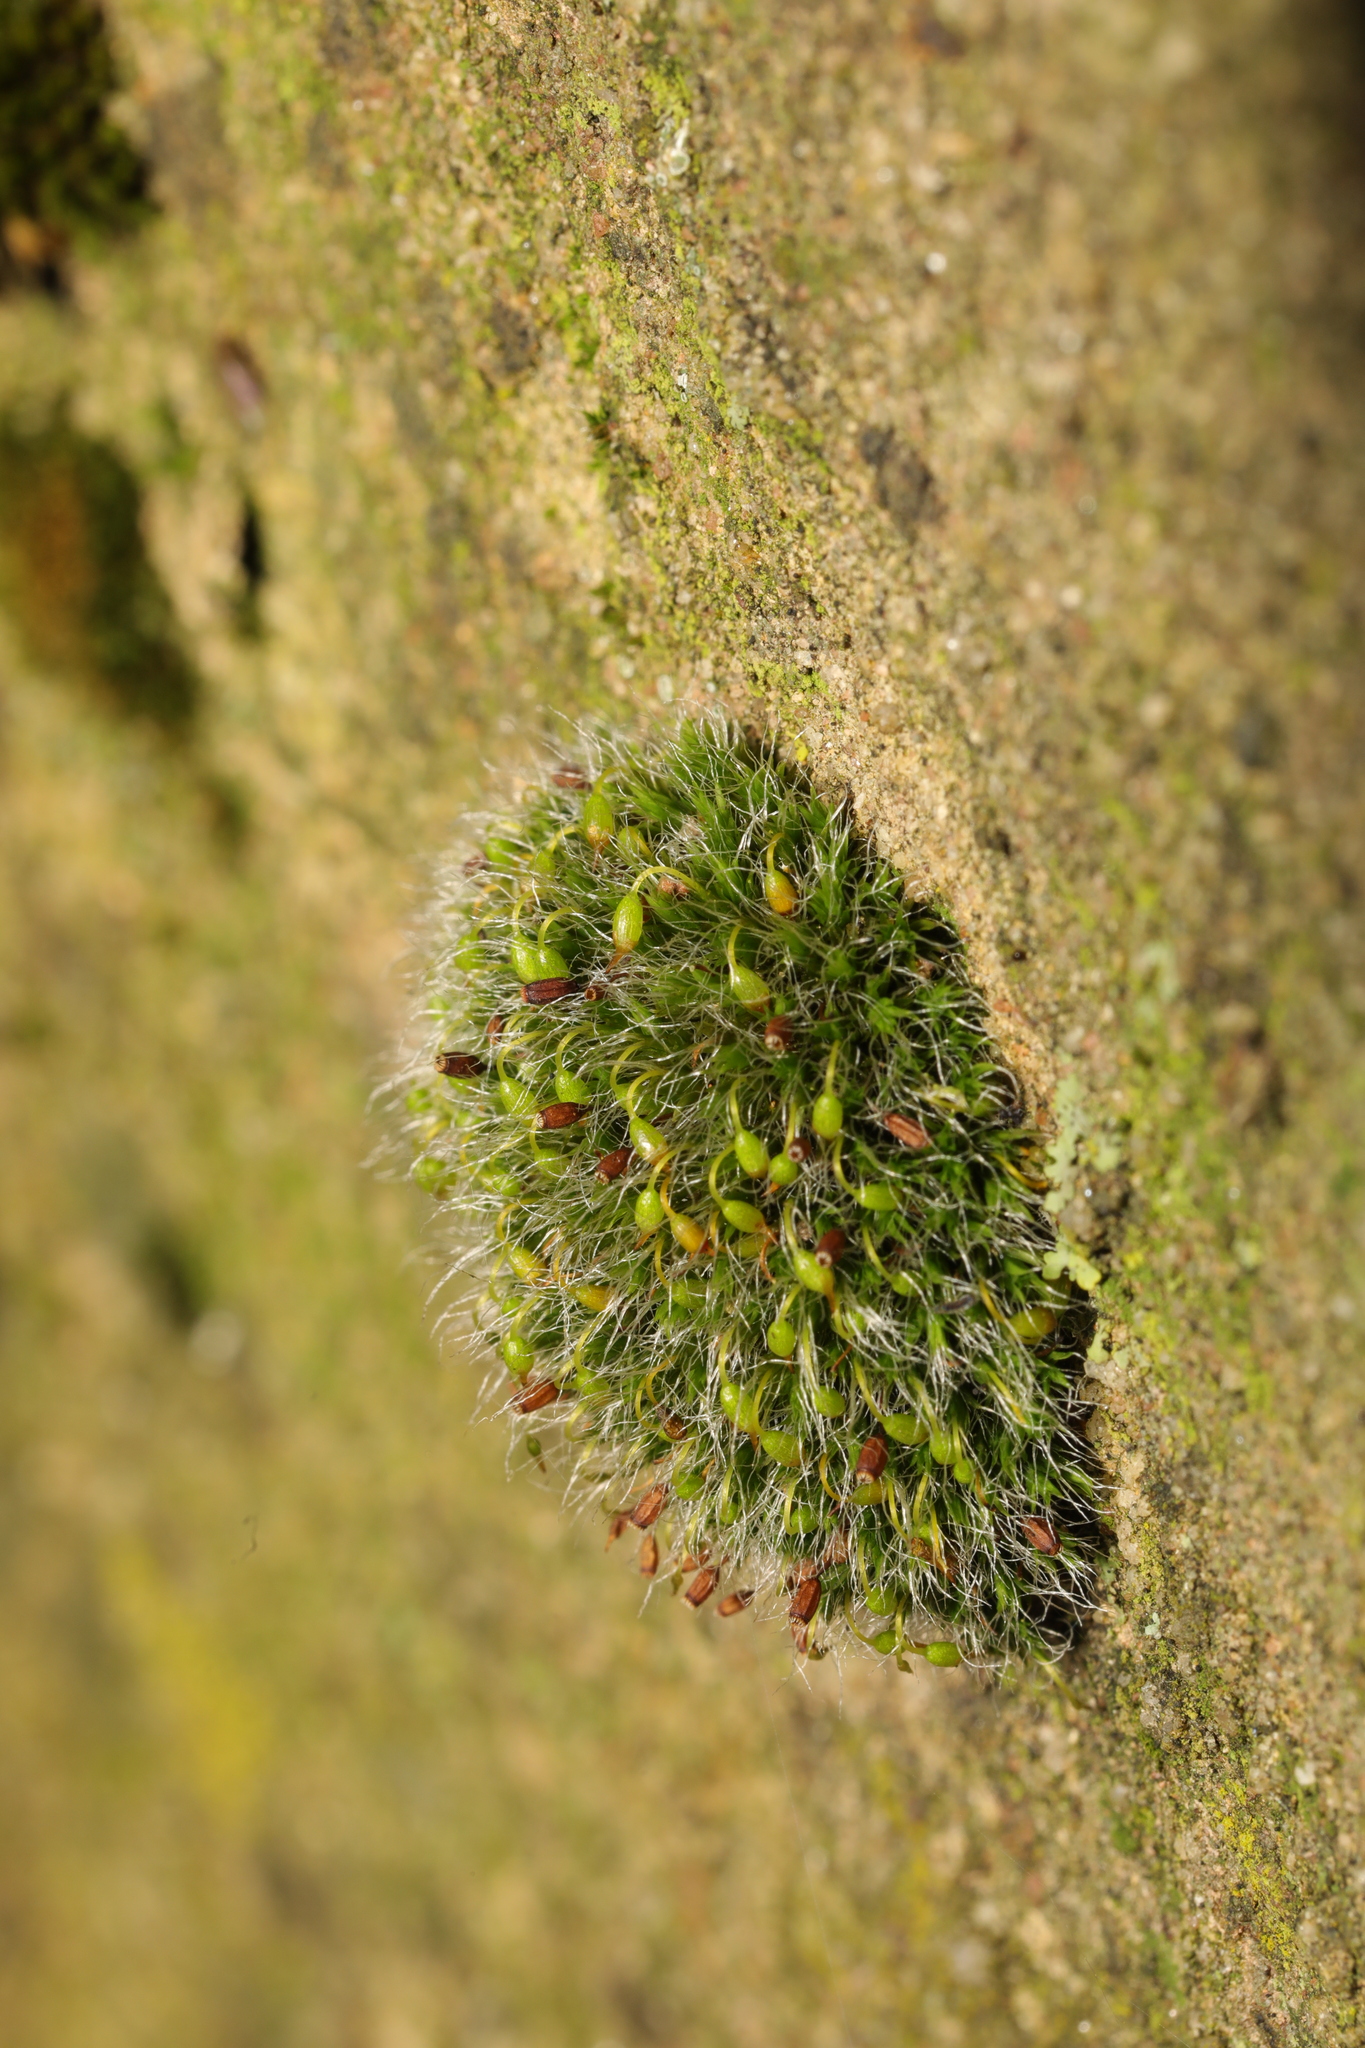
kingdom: Plantae
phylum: Bryophyta
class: Bryopsida
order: Grimmiales
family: Grimmiaceae
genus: Grimmia
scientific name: Grimmia pulvinata
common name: Grey-cushioned grimmia
